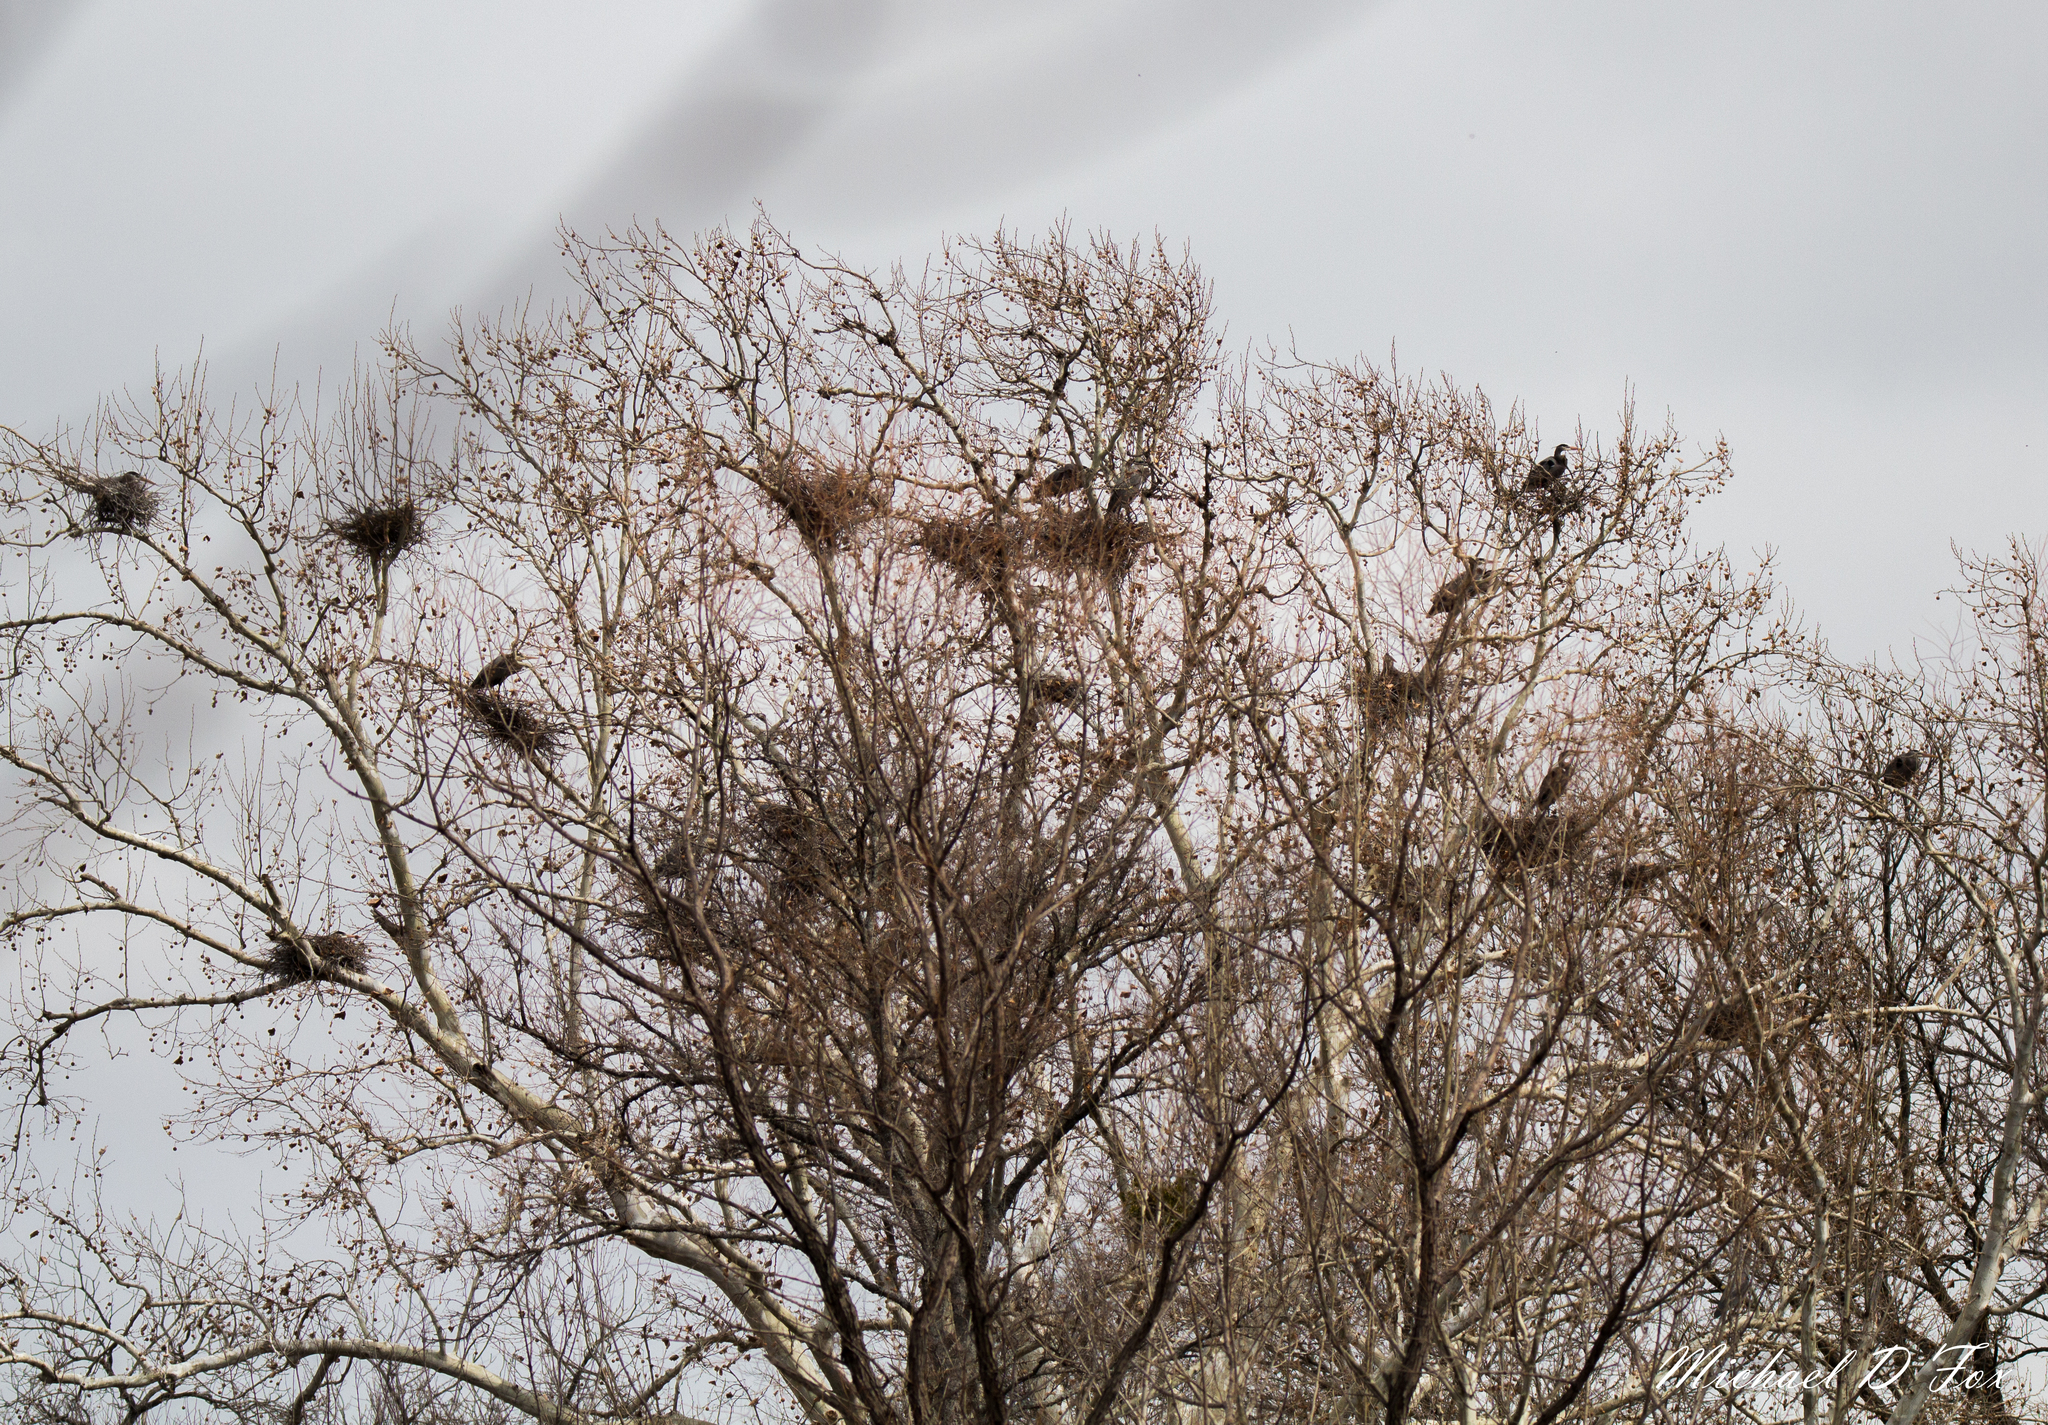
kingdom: Animalia
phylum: Chordata
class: Aves
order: Pelecaniformes
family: Ardeidae
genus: Ardea
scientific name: Ardea herodias
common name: Great blue heron
